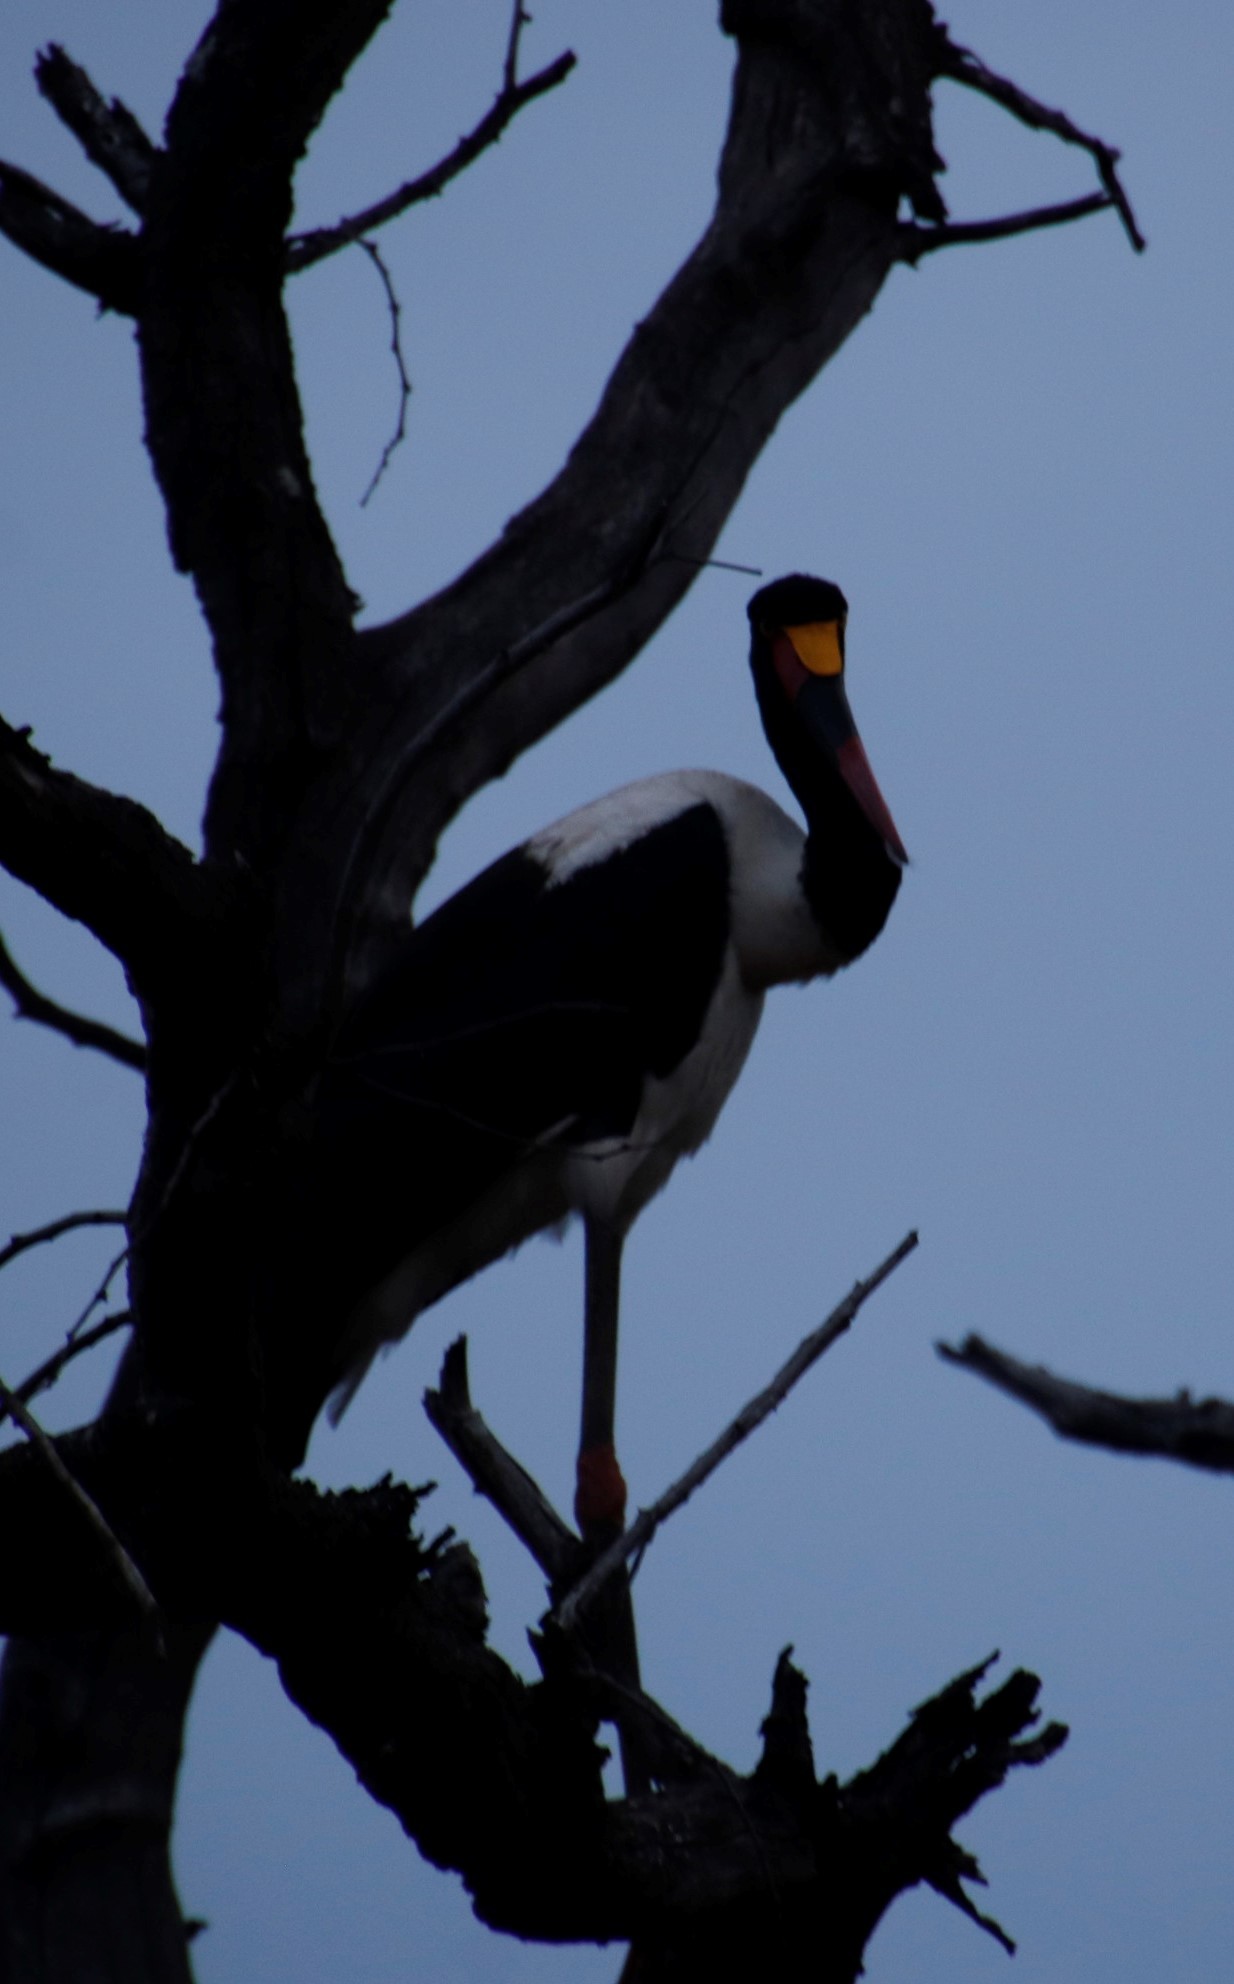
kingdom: Animalia
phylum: Chordata
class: Aves
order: Ciconiiformes
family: Ciconiidae
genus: Ephippiorhynchus
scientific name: Ephippiorhynchus senegalensis
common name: Saddle-billed stork
